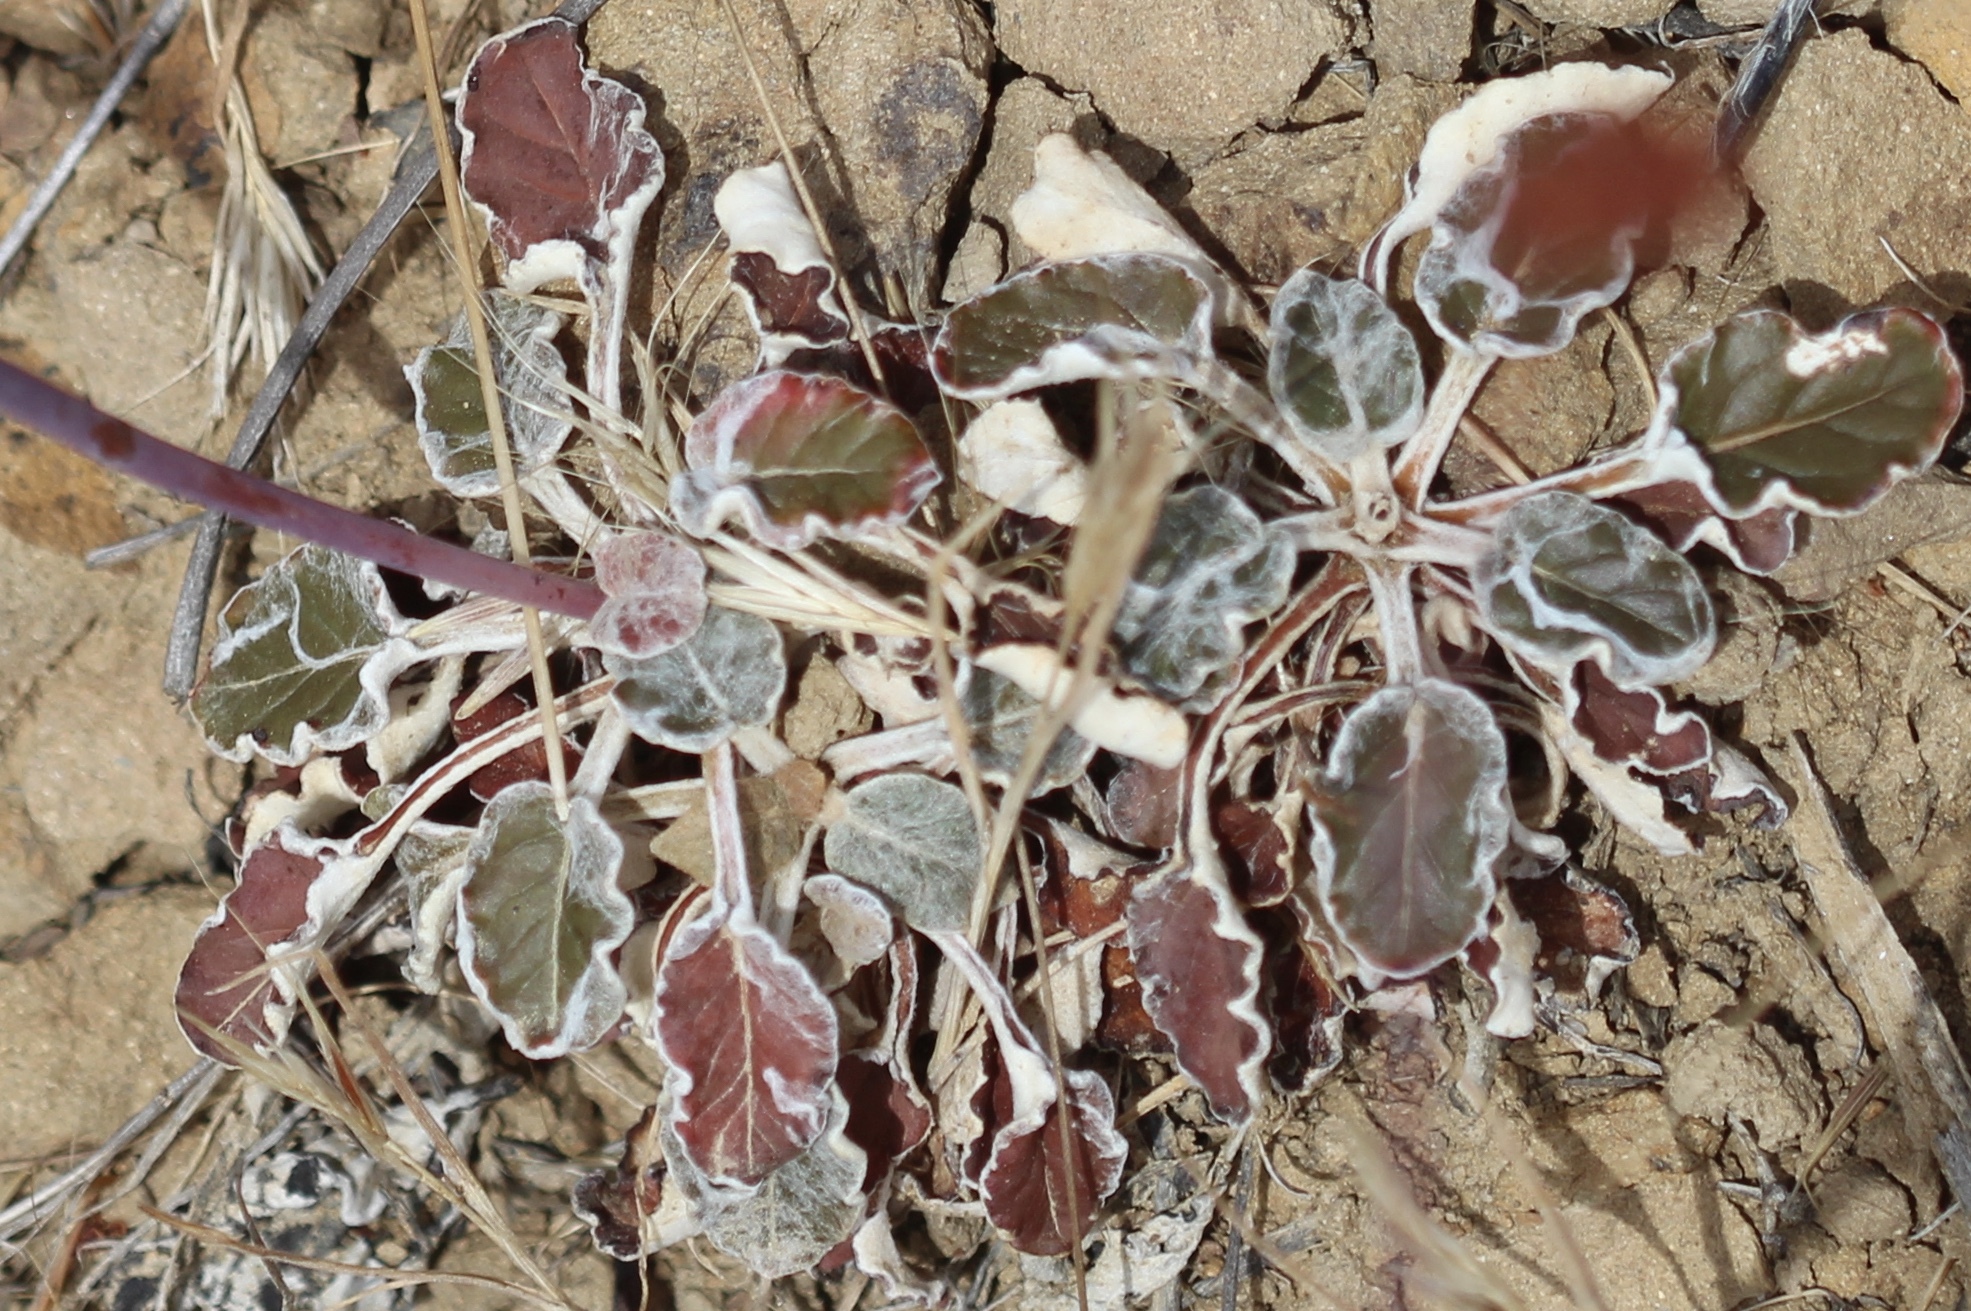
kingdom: Plantae
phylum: Tracheophyta
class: Magnoliopsida
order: Caryophyllales
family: Polygonaceae
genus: Eriogonum
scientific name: Eriogonum nudum
